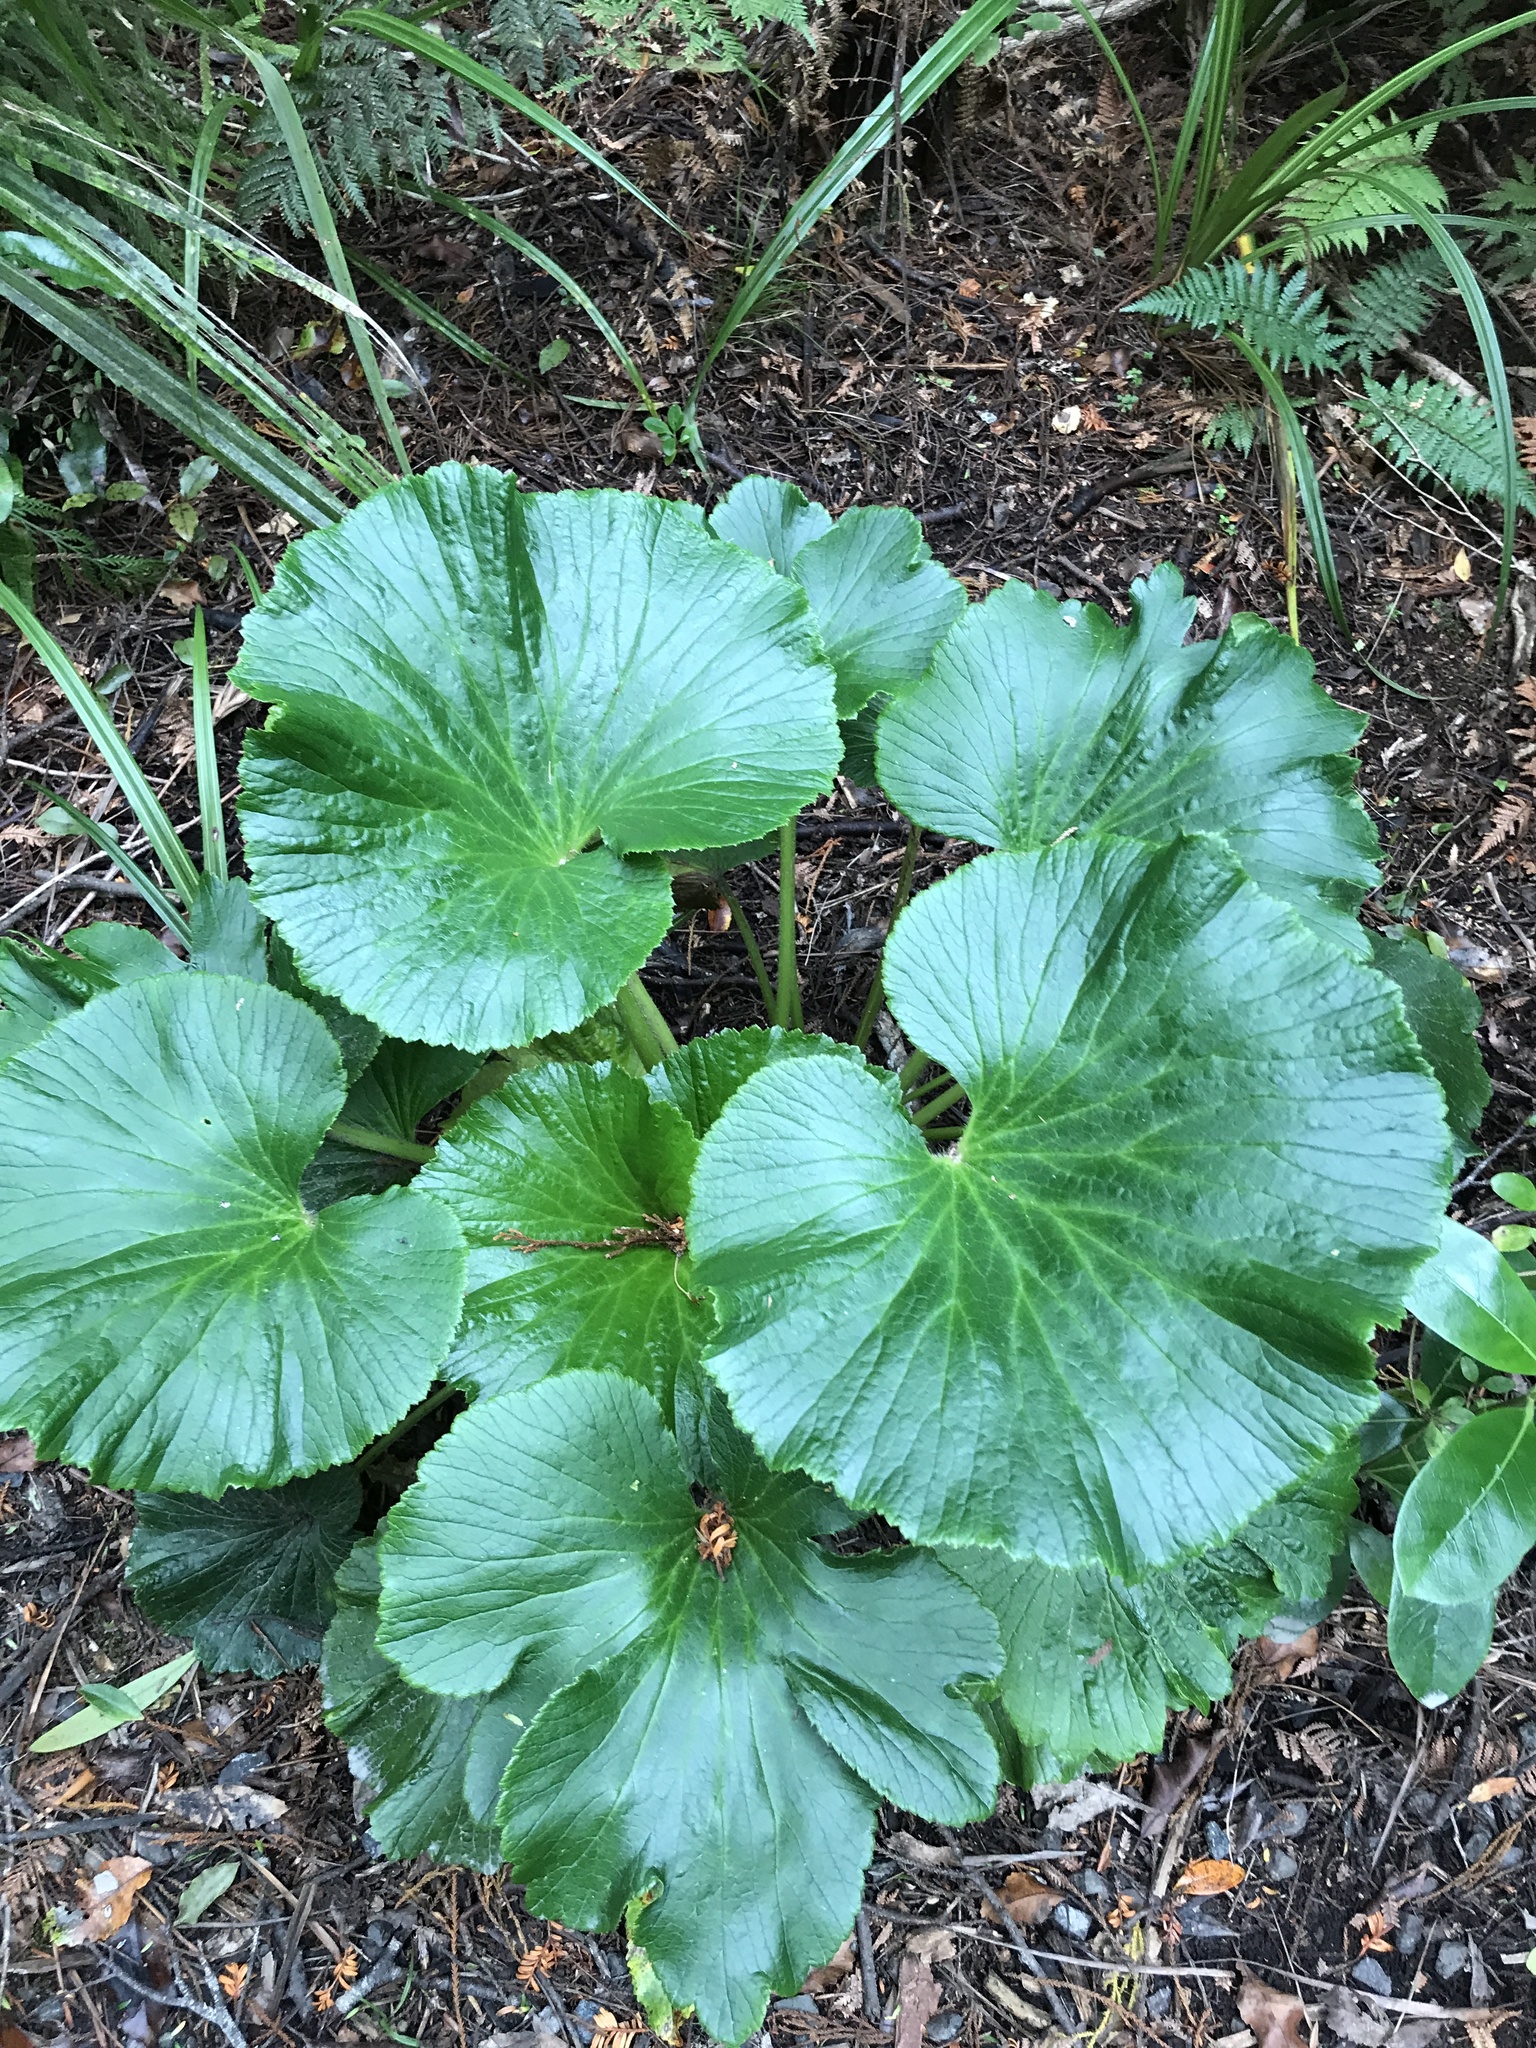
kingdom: Plantae
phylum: Tracheophyta
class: Magnoliopsida
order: Apiales
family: Apiaceae
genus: Azorella
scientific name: Azorella lyallii
